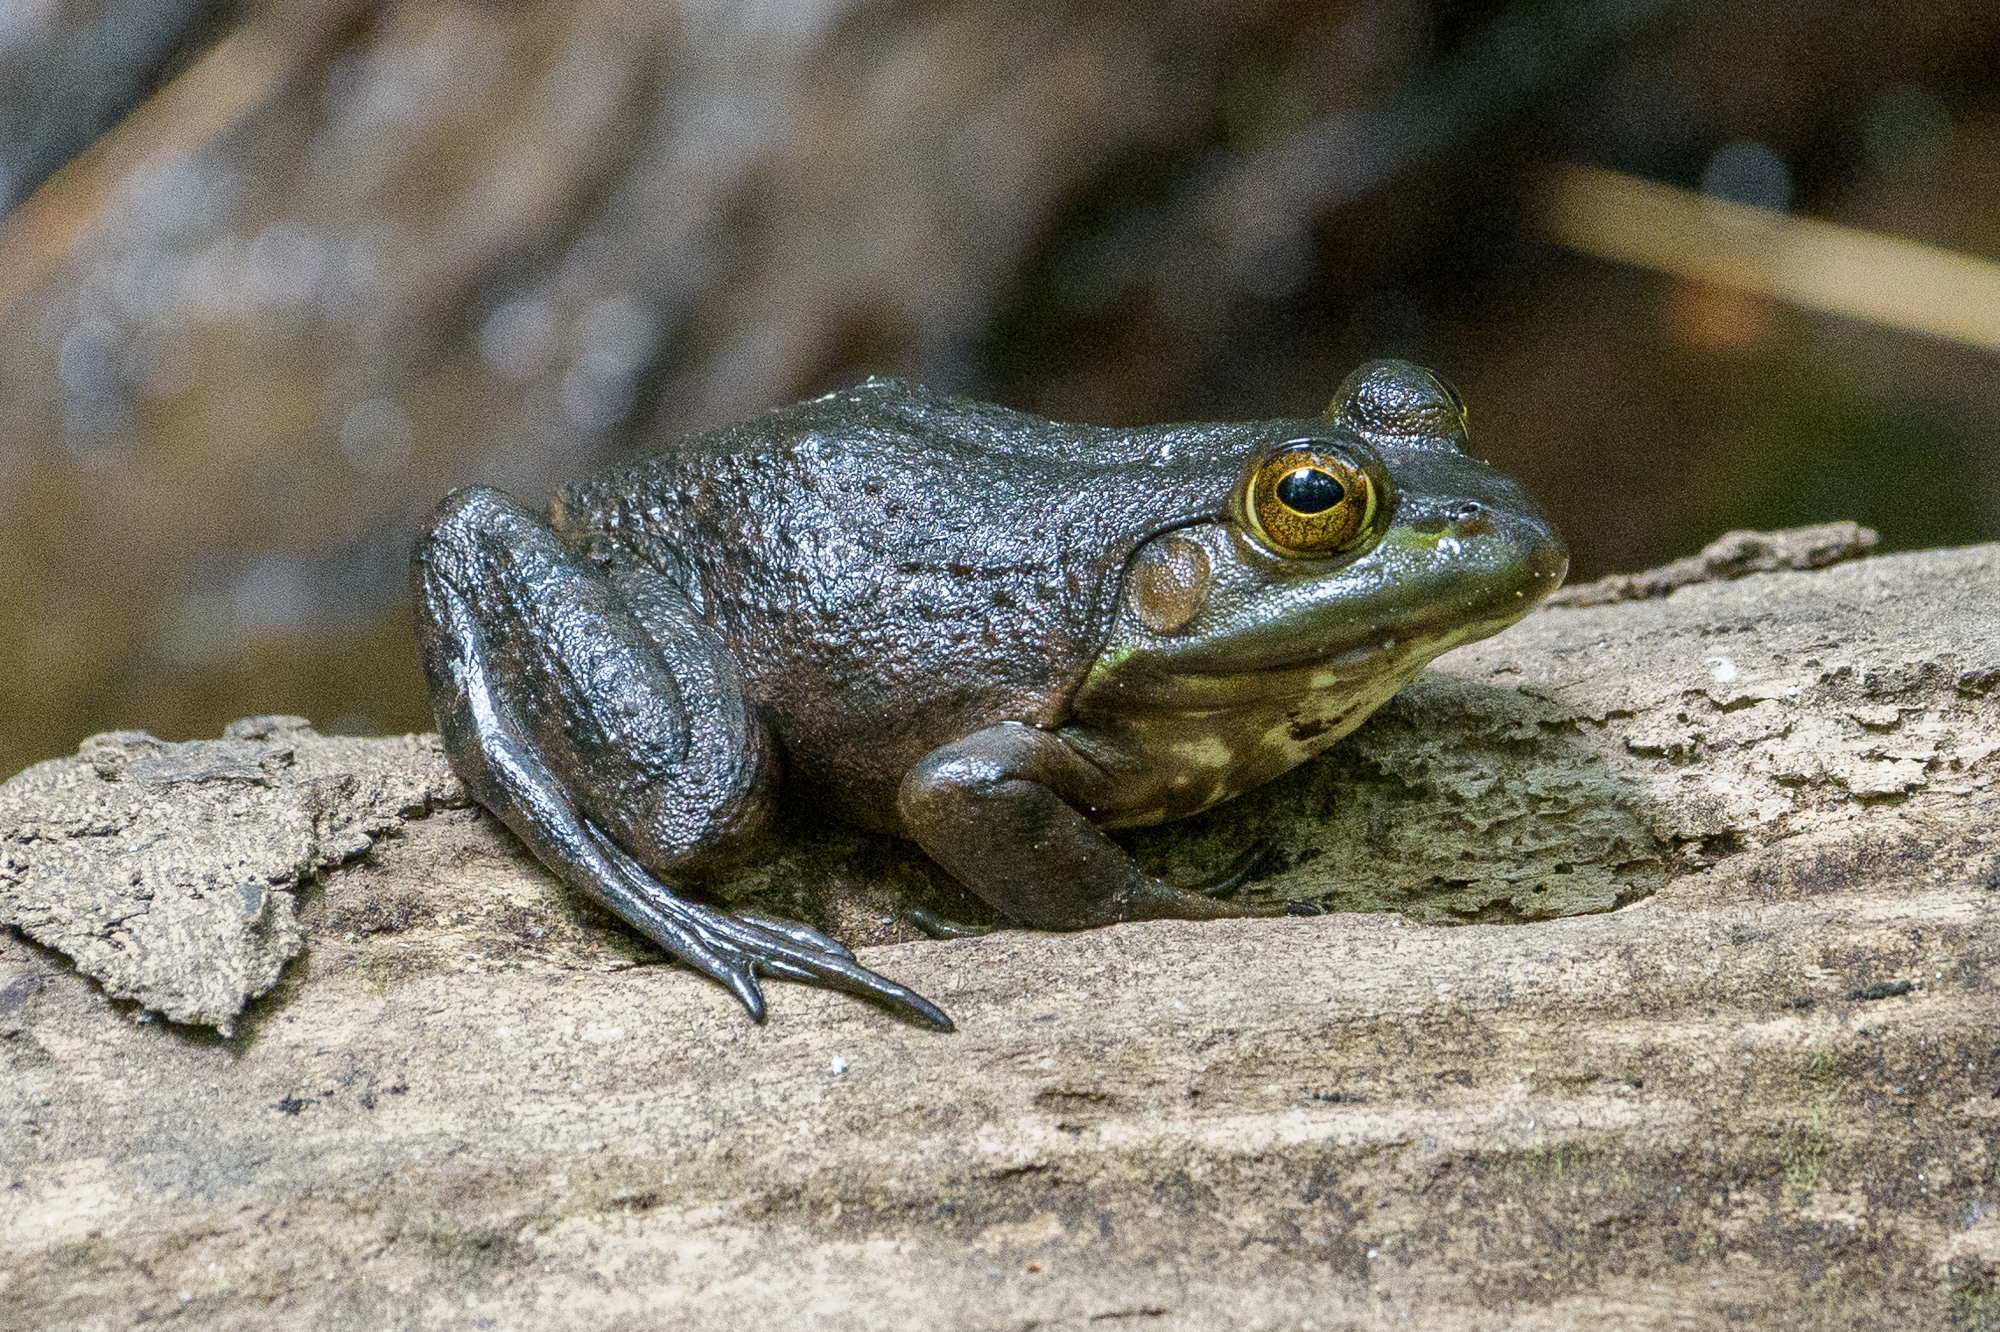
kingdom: Animalia
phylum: Chordata
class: Amphibia
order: Anura
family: Ranidae
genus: Lithobates
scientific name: Lithobates catesbeianus
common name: American bullfrog
